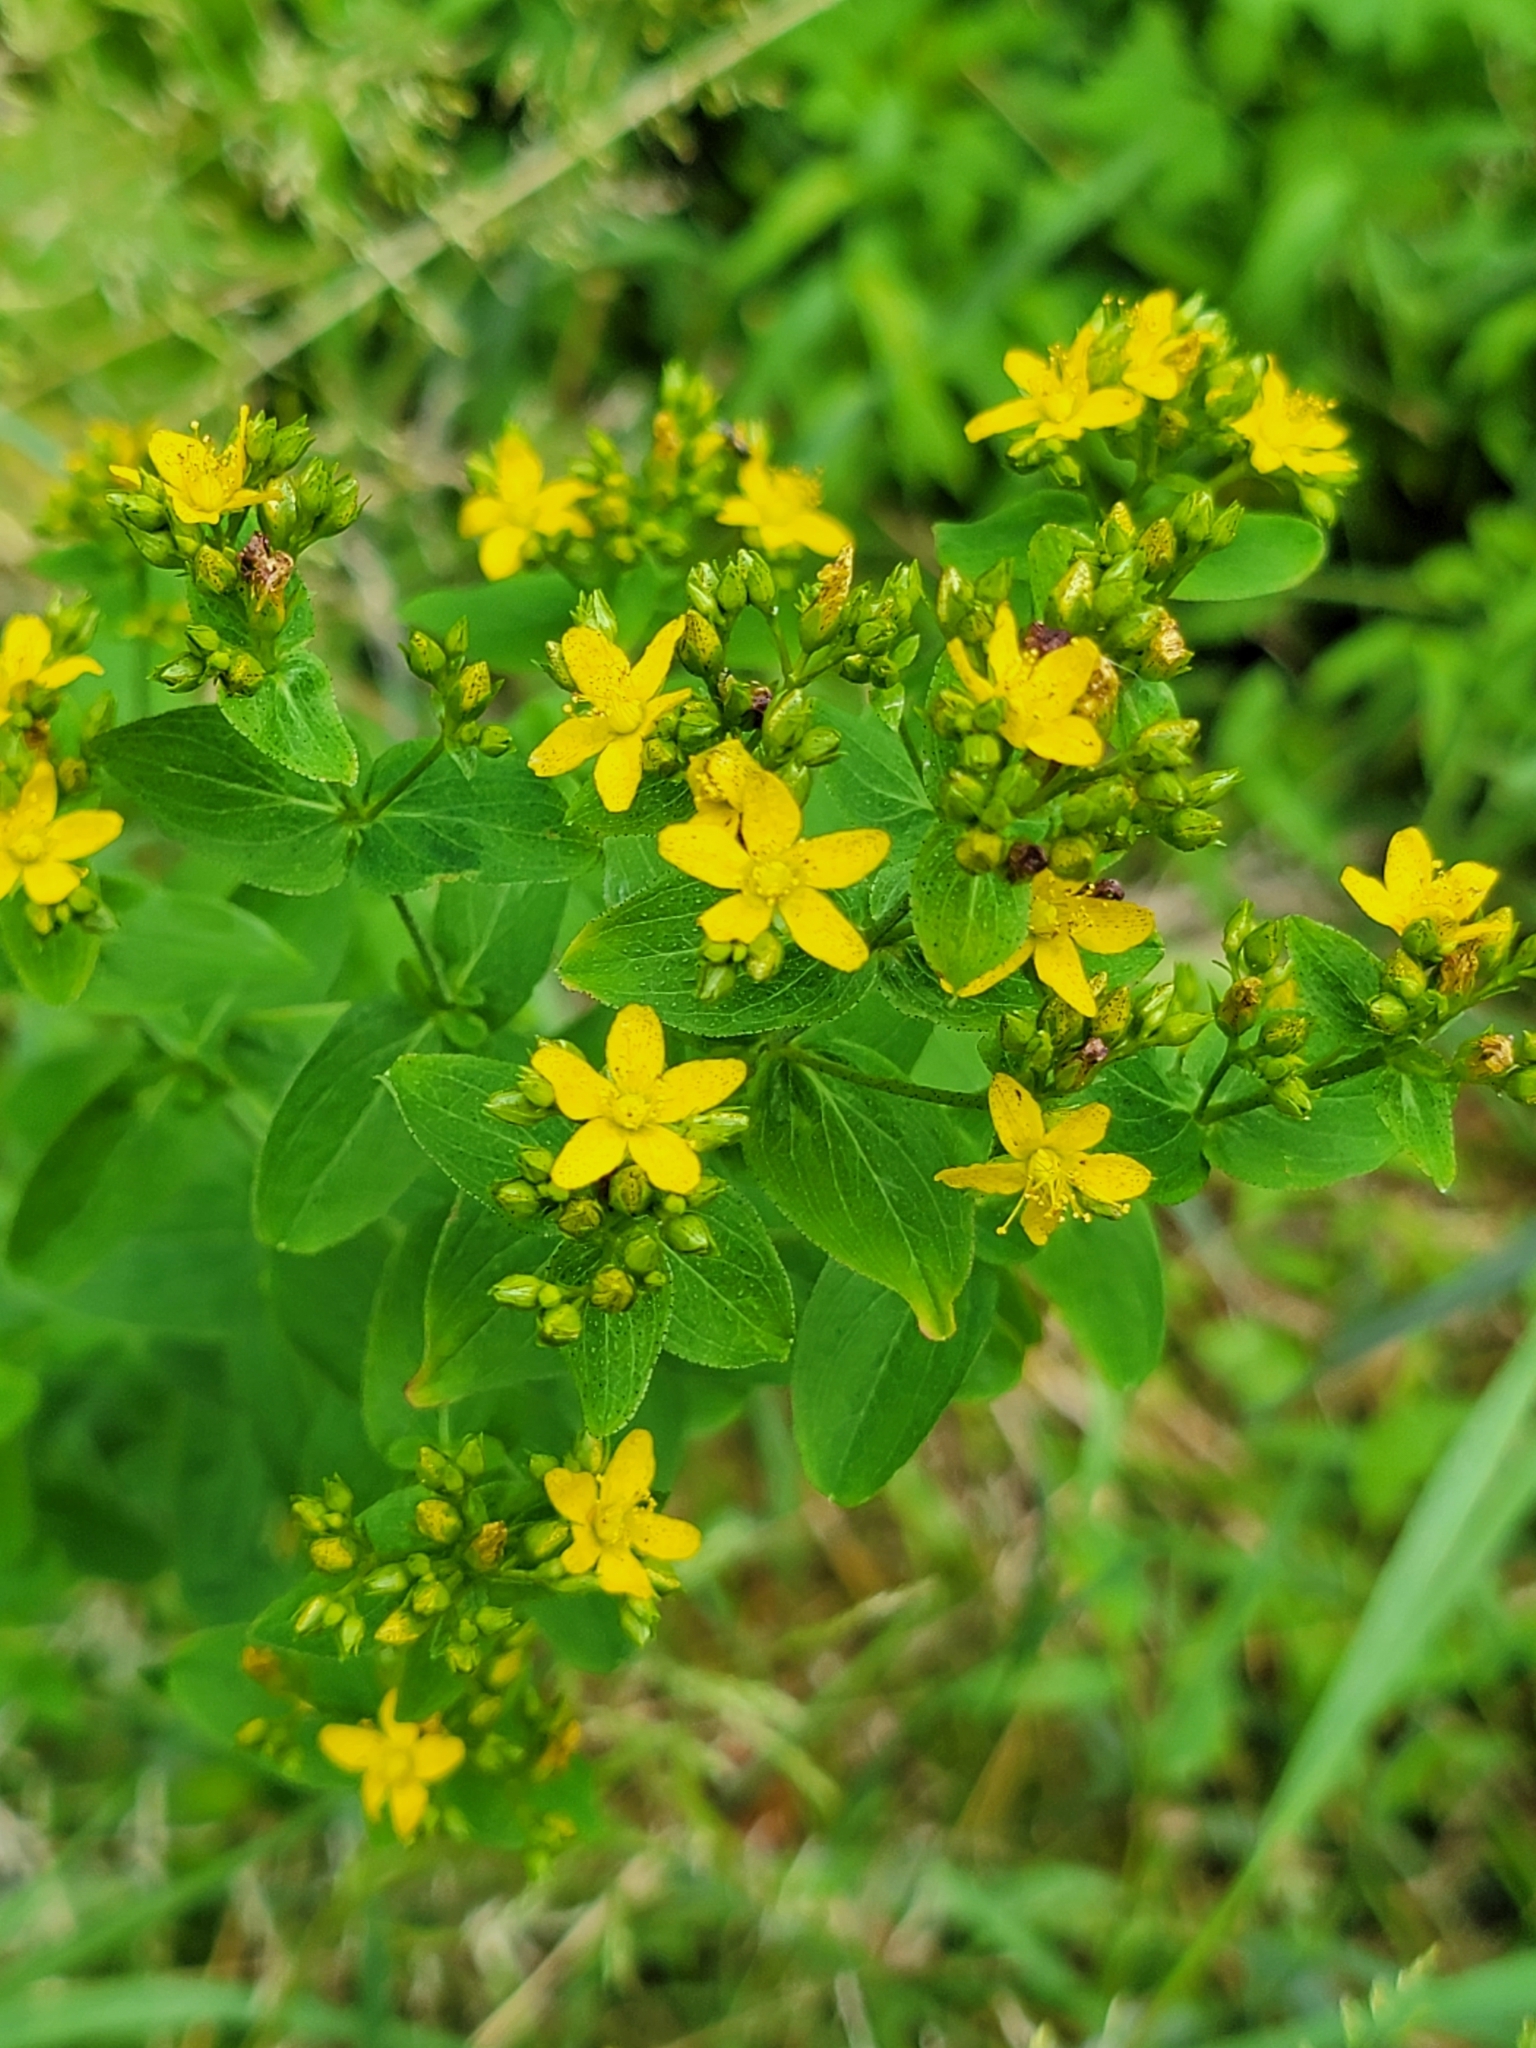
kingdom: Plantae
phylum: Tracheophyta
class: Magnoliopsida
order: Malpighiales
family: Hypericaceae
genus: Hypericum
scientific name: Hypericum punctatum
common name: Spotted st. john's-wort
